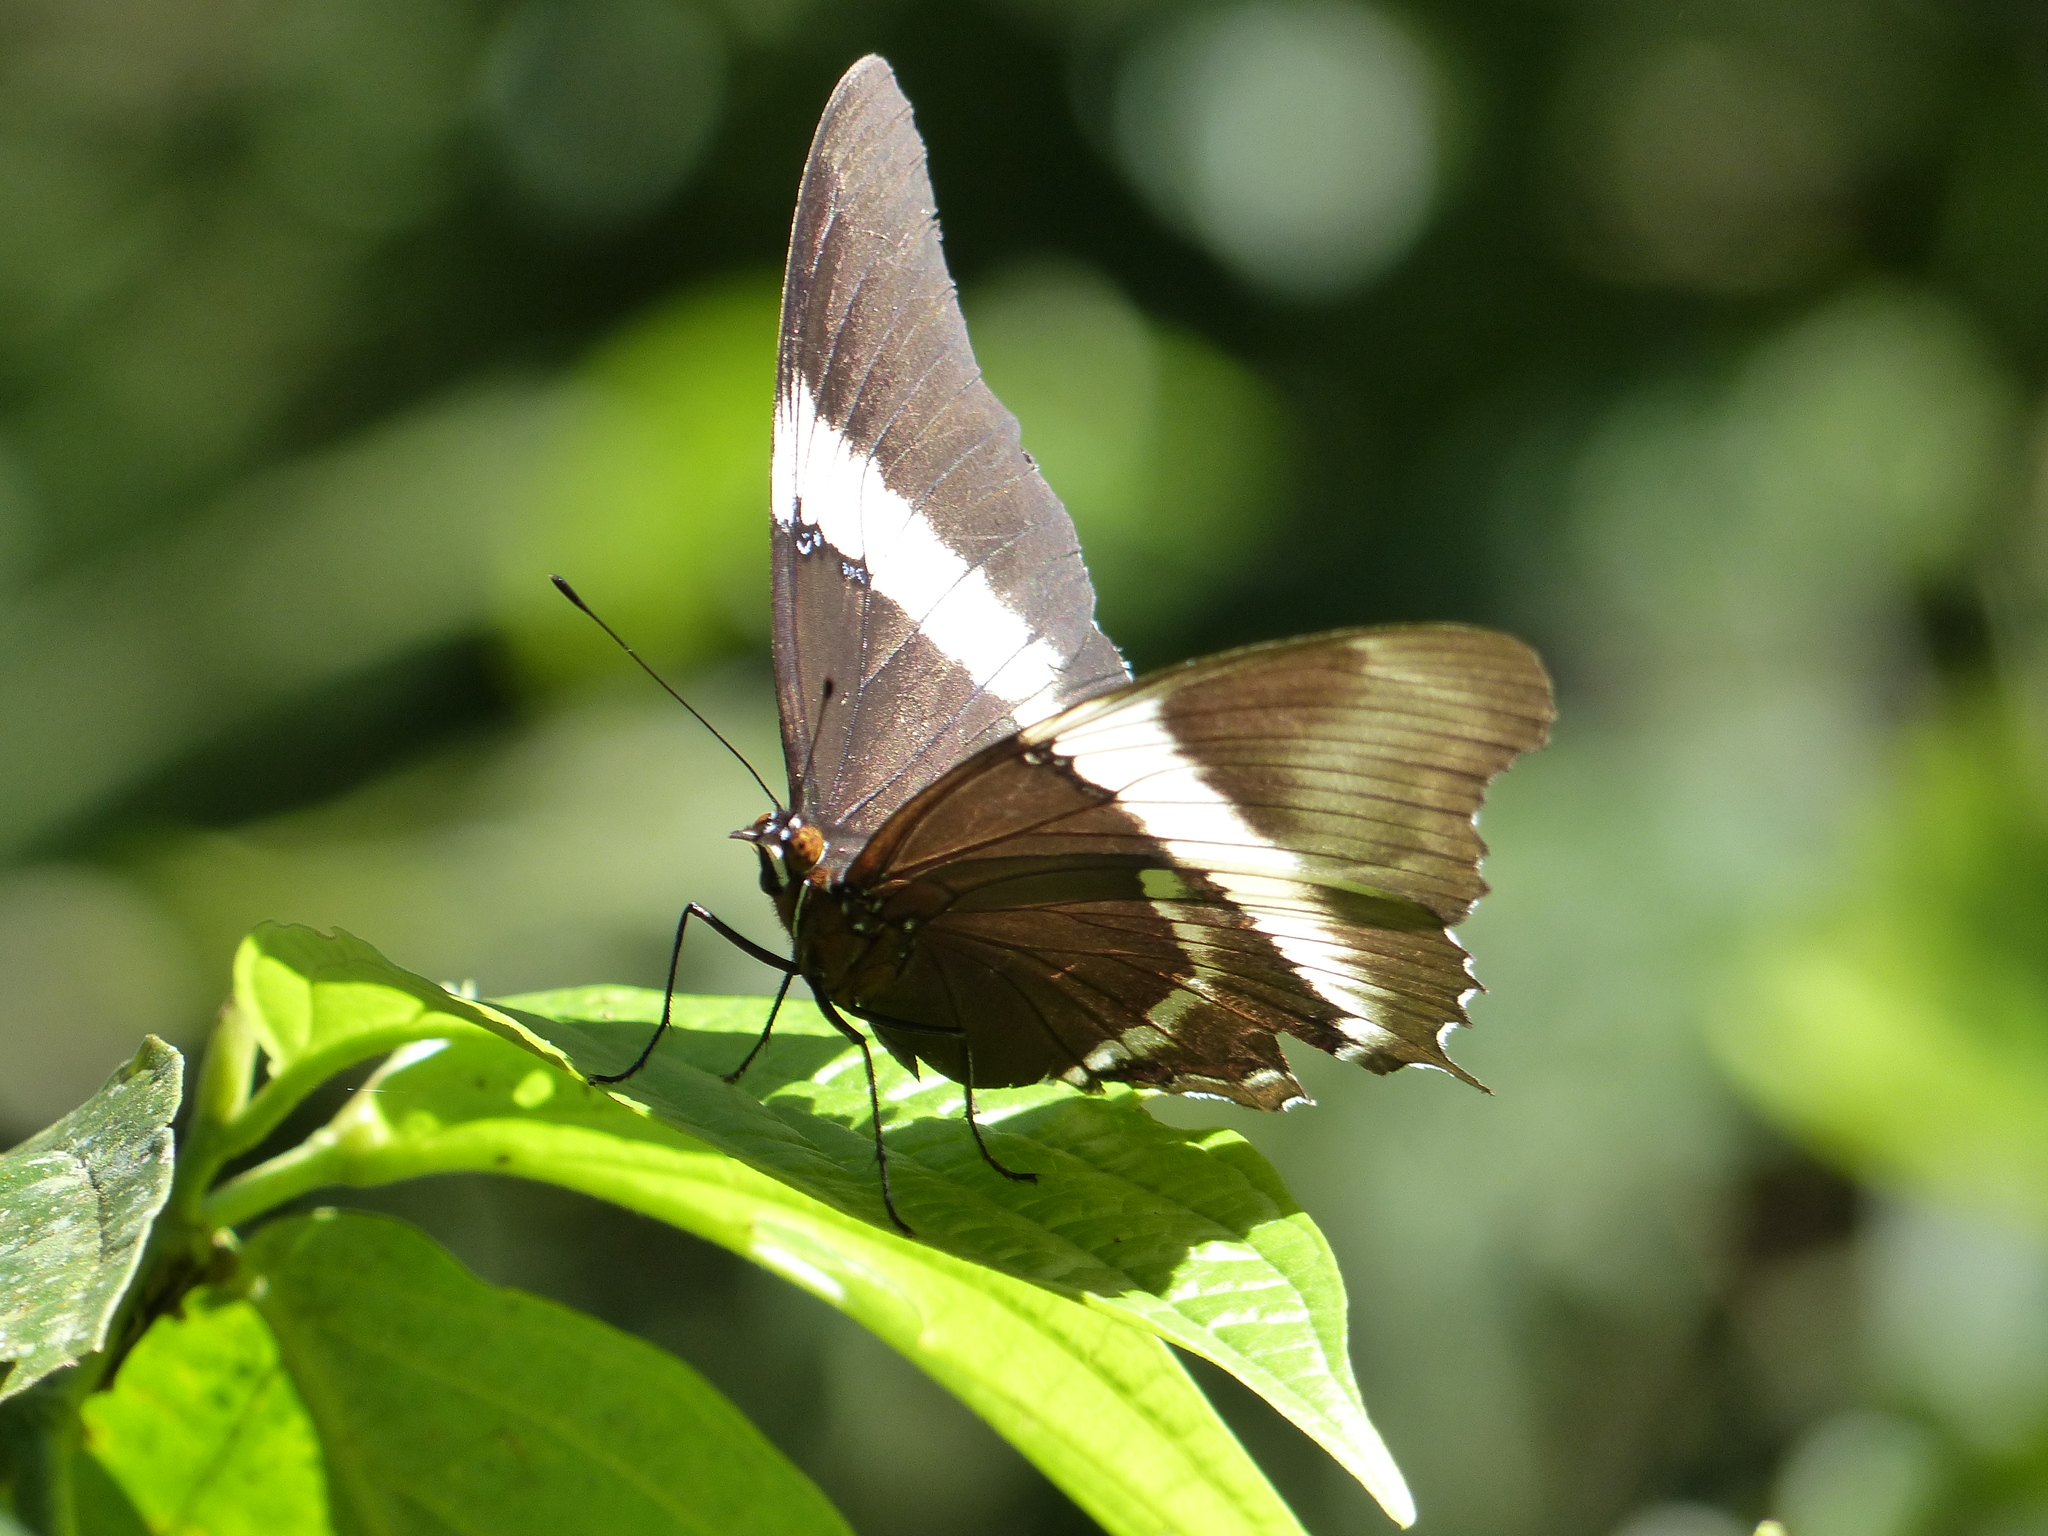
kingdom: Animalia
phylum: Arthropoda
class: Insecta
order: Lepidoptera
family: Nymphalidae
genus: Siproeta
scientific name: Siproeta epaphus
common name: Rusty-tipped page
